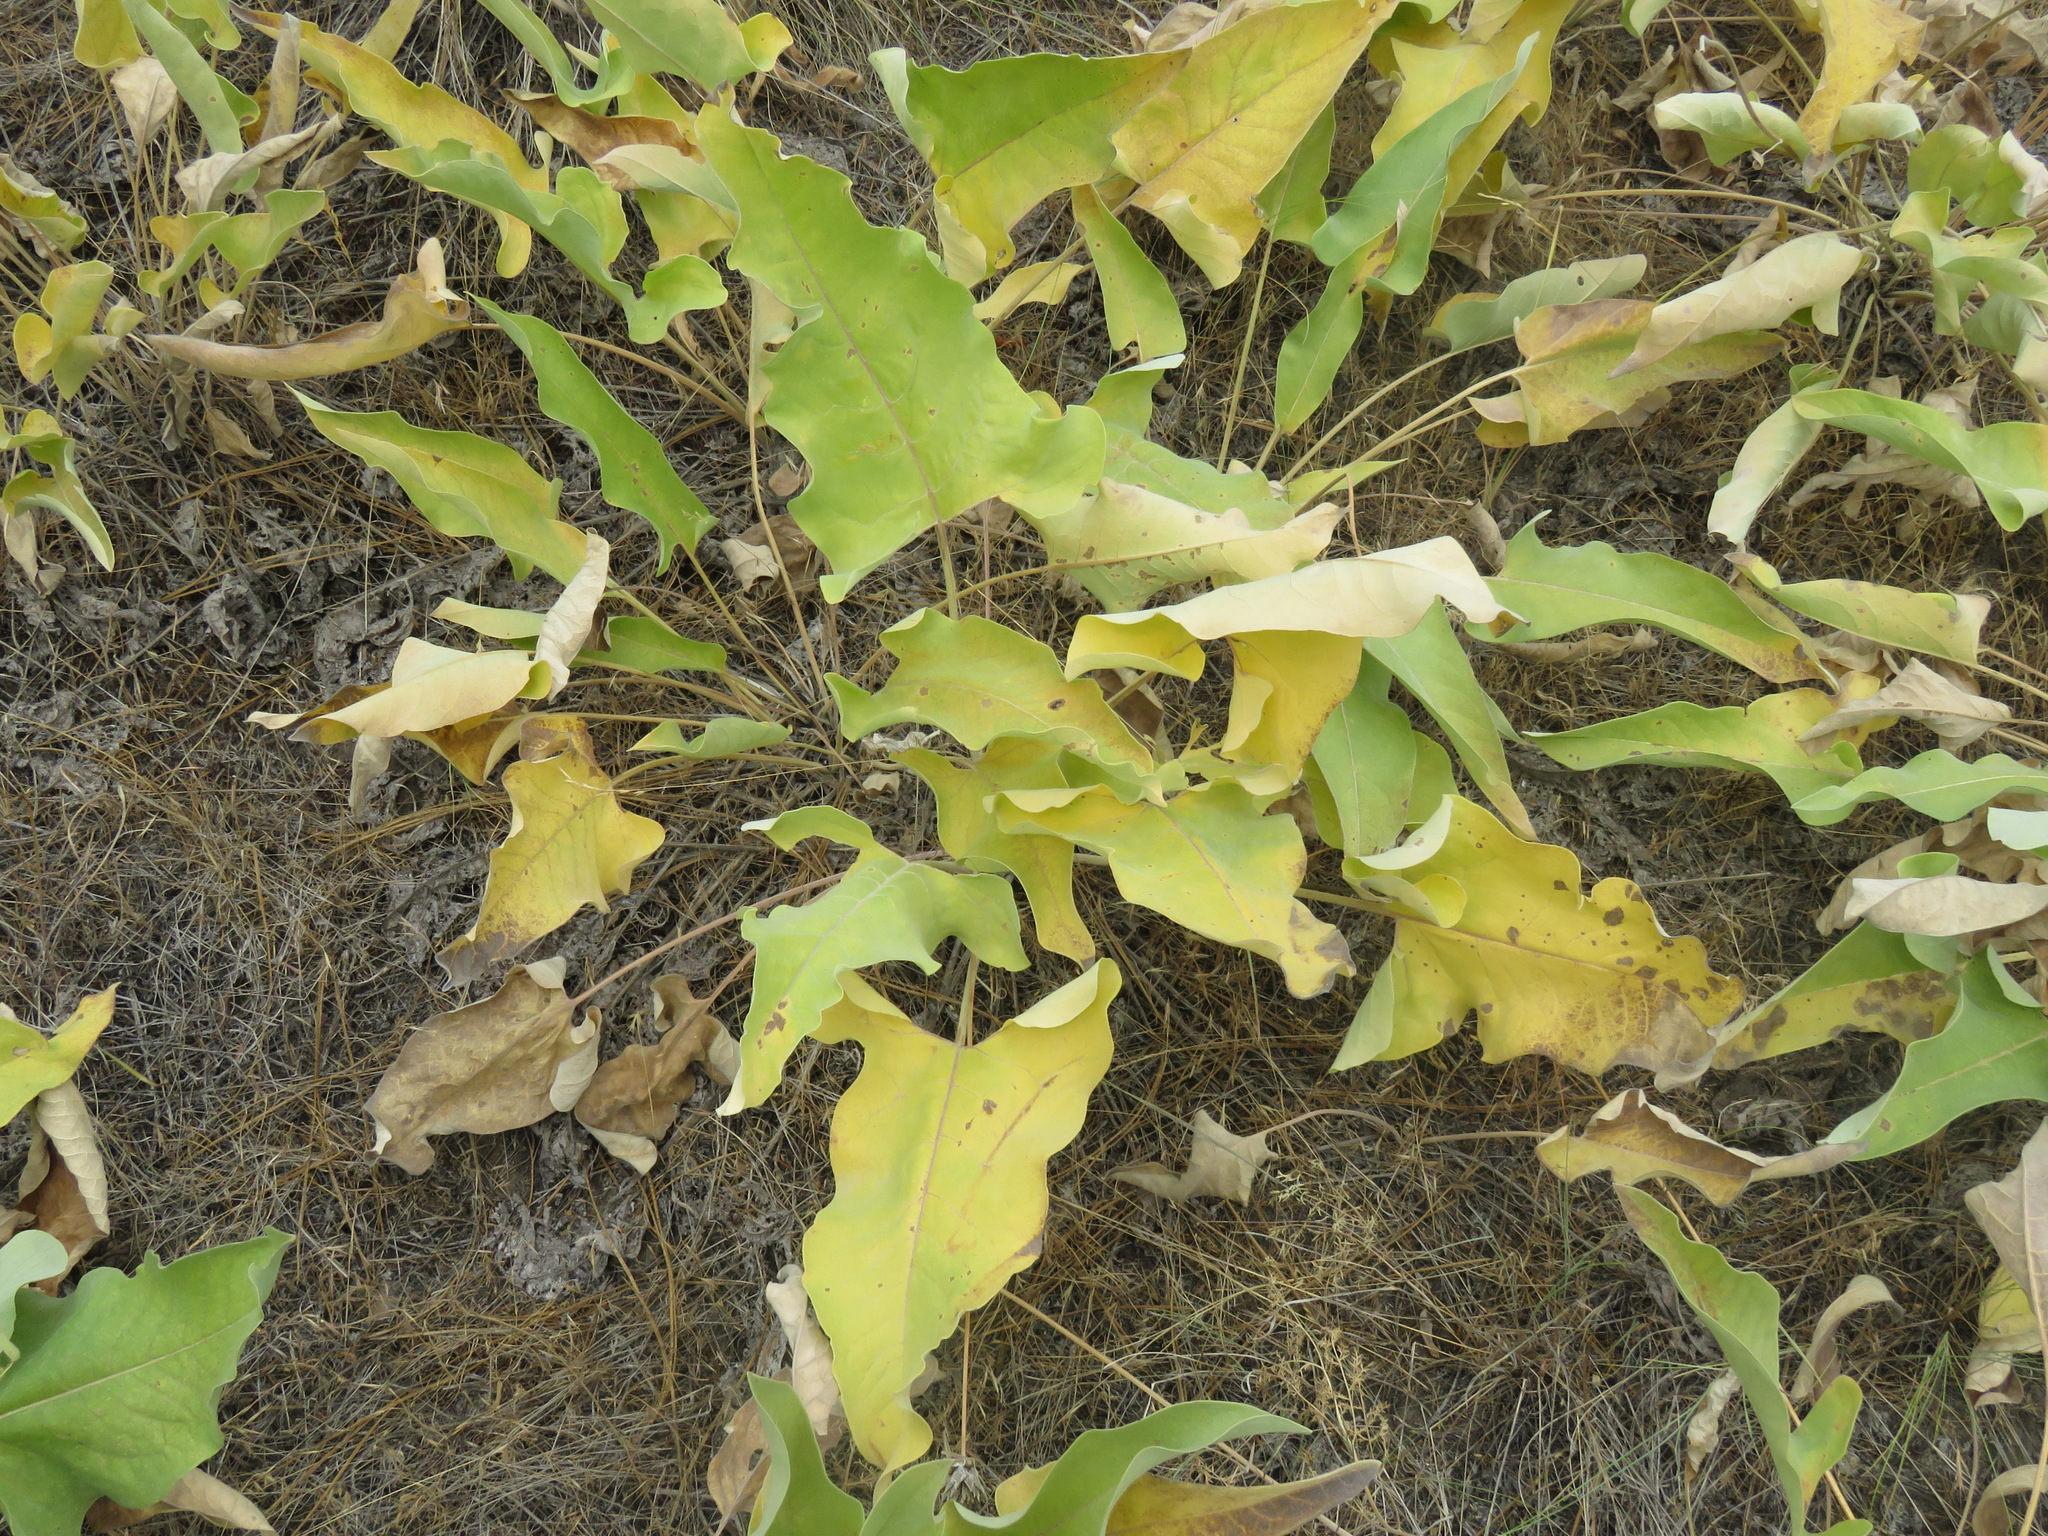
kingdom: Plantae
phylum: Tracheophyta
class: Magnoliopsida
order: Asterales
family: Asteraceae
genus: Wyethia
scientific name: Wyethia sagittata
